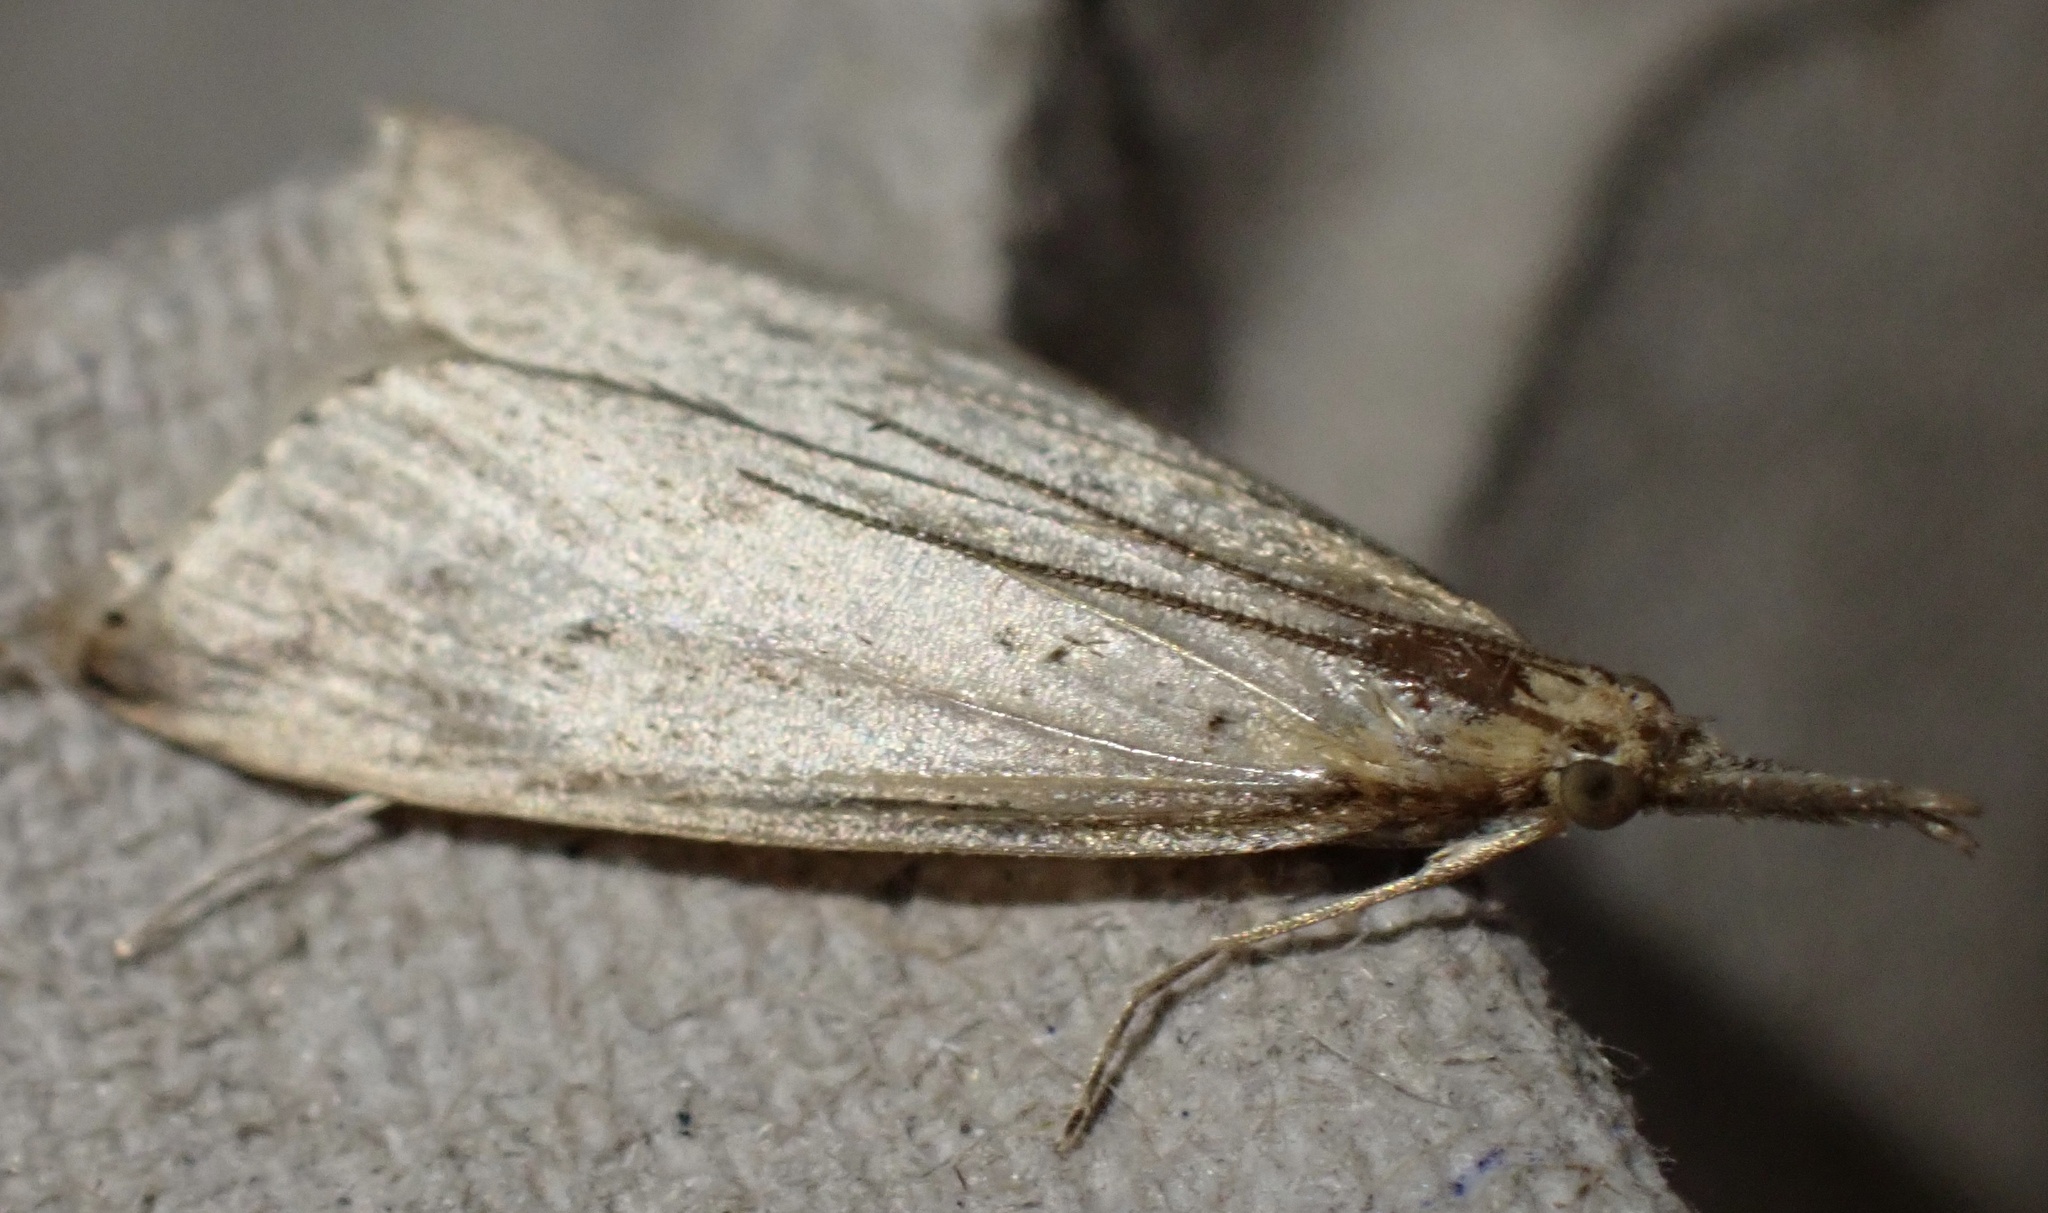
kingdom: Animalia
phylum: Arthropoda
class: Insecta
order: Lepidoptera
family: Crambidae
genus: Donacaula
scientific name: Donacaula forficella
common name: Pale water-veneer
